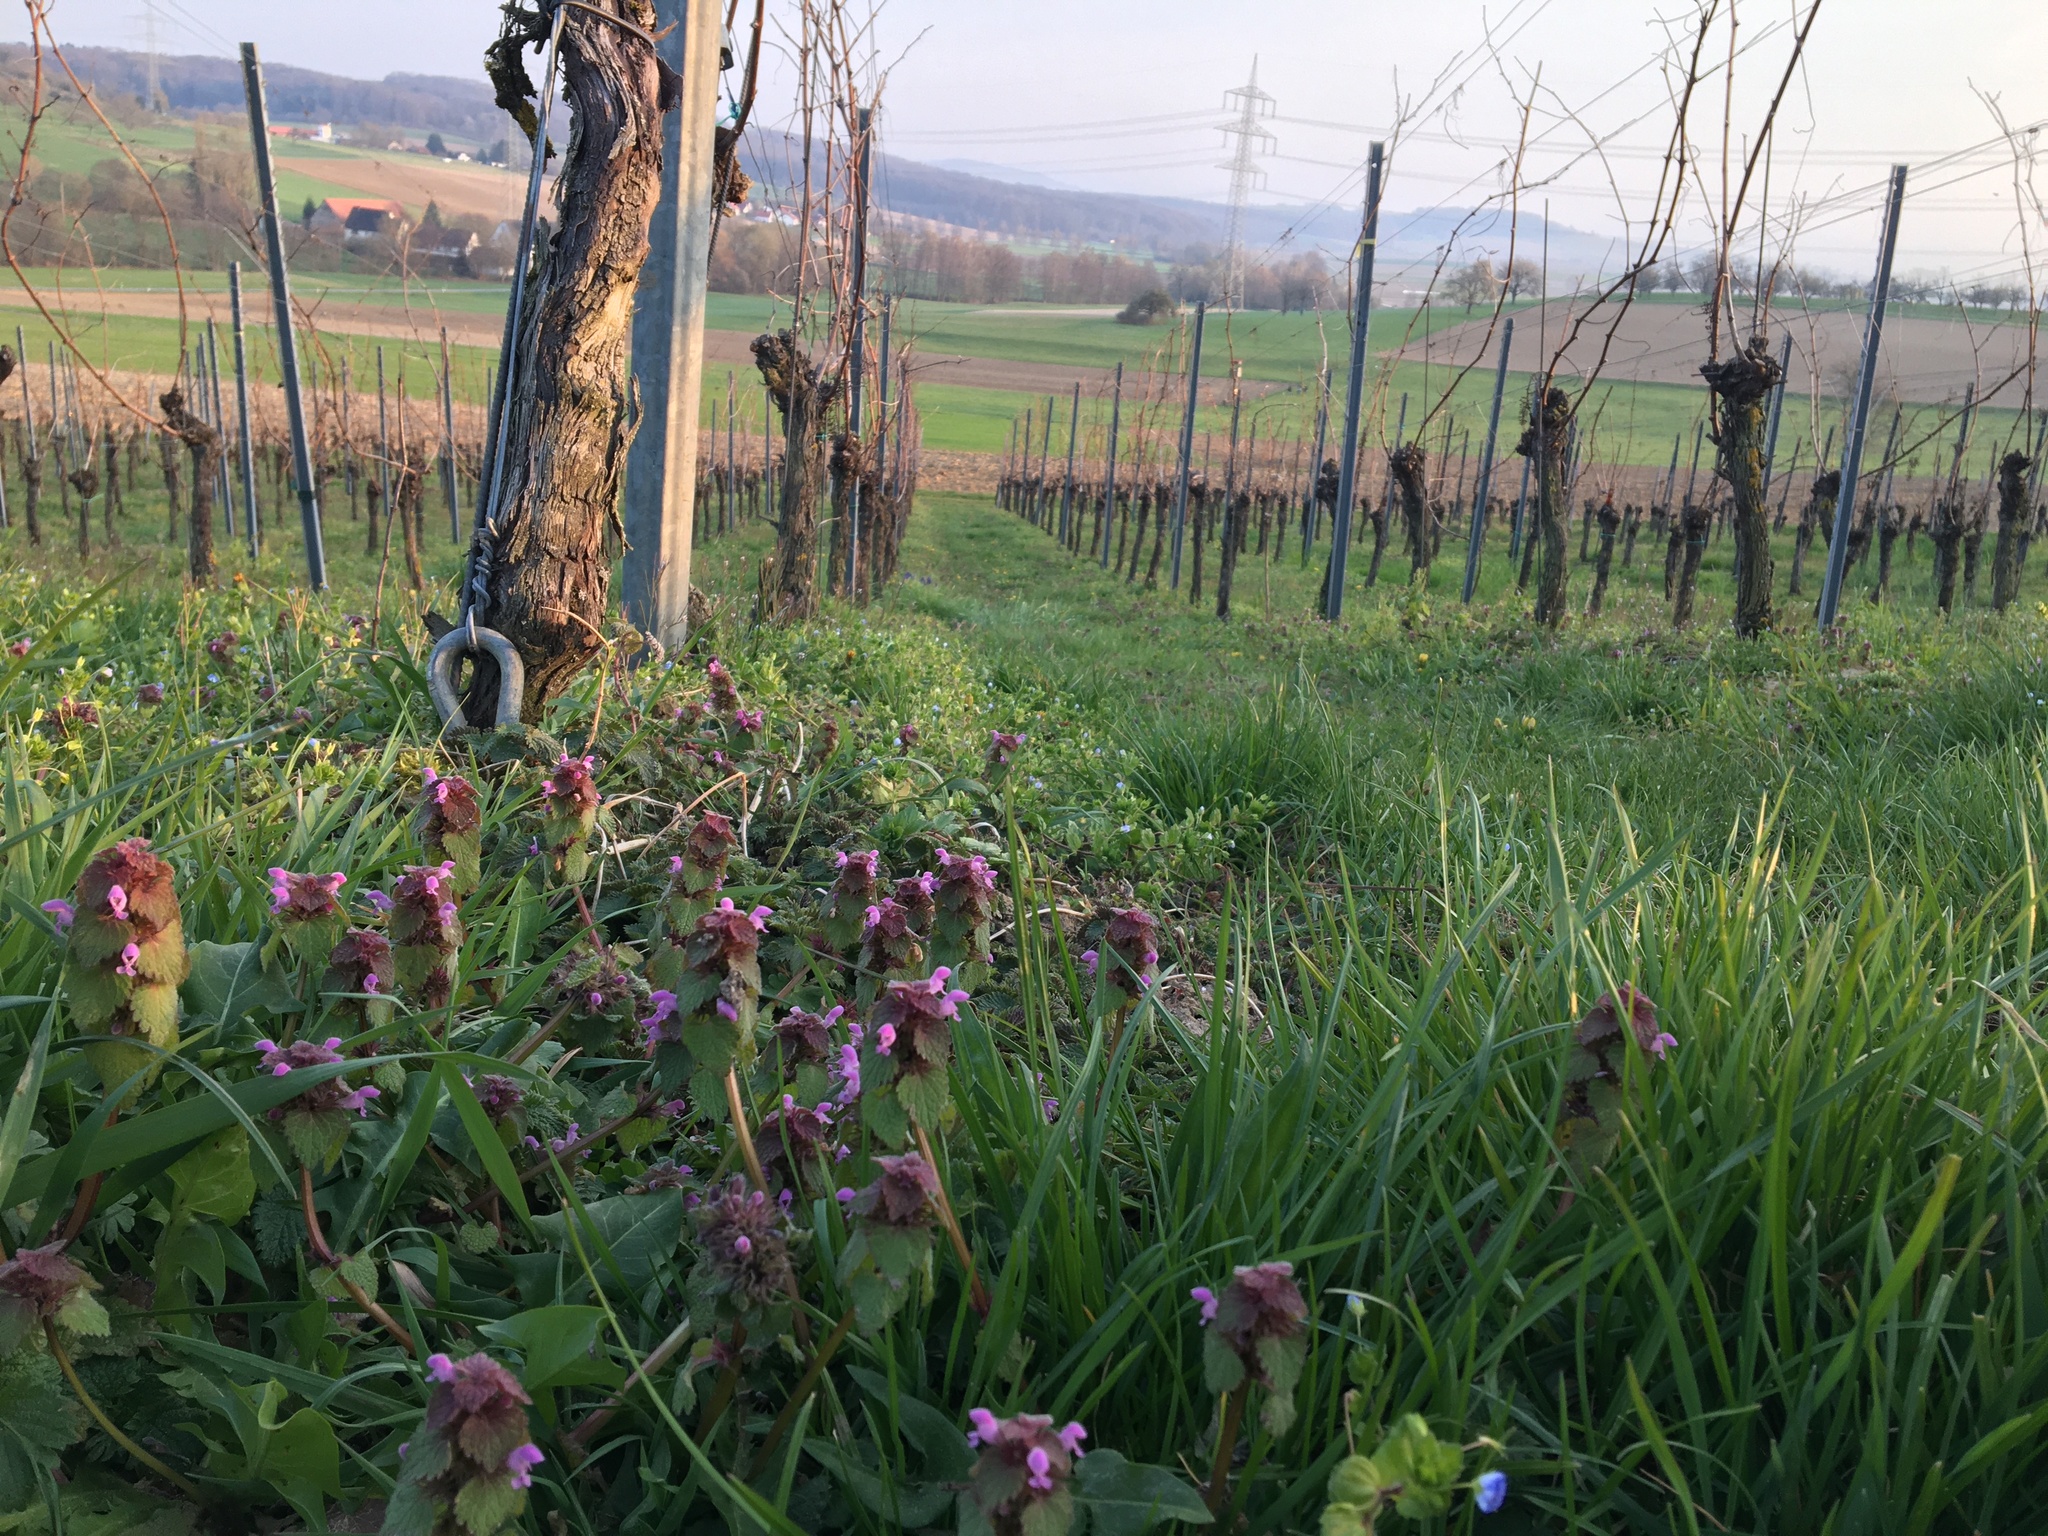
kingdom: Plantae
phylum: Tracheophyta
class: Magnoliopsida
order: Lamiales
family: Lamiaceae
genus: Lamium
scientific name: Lamium purpureum
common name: Red dead-nettle
